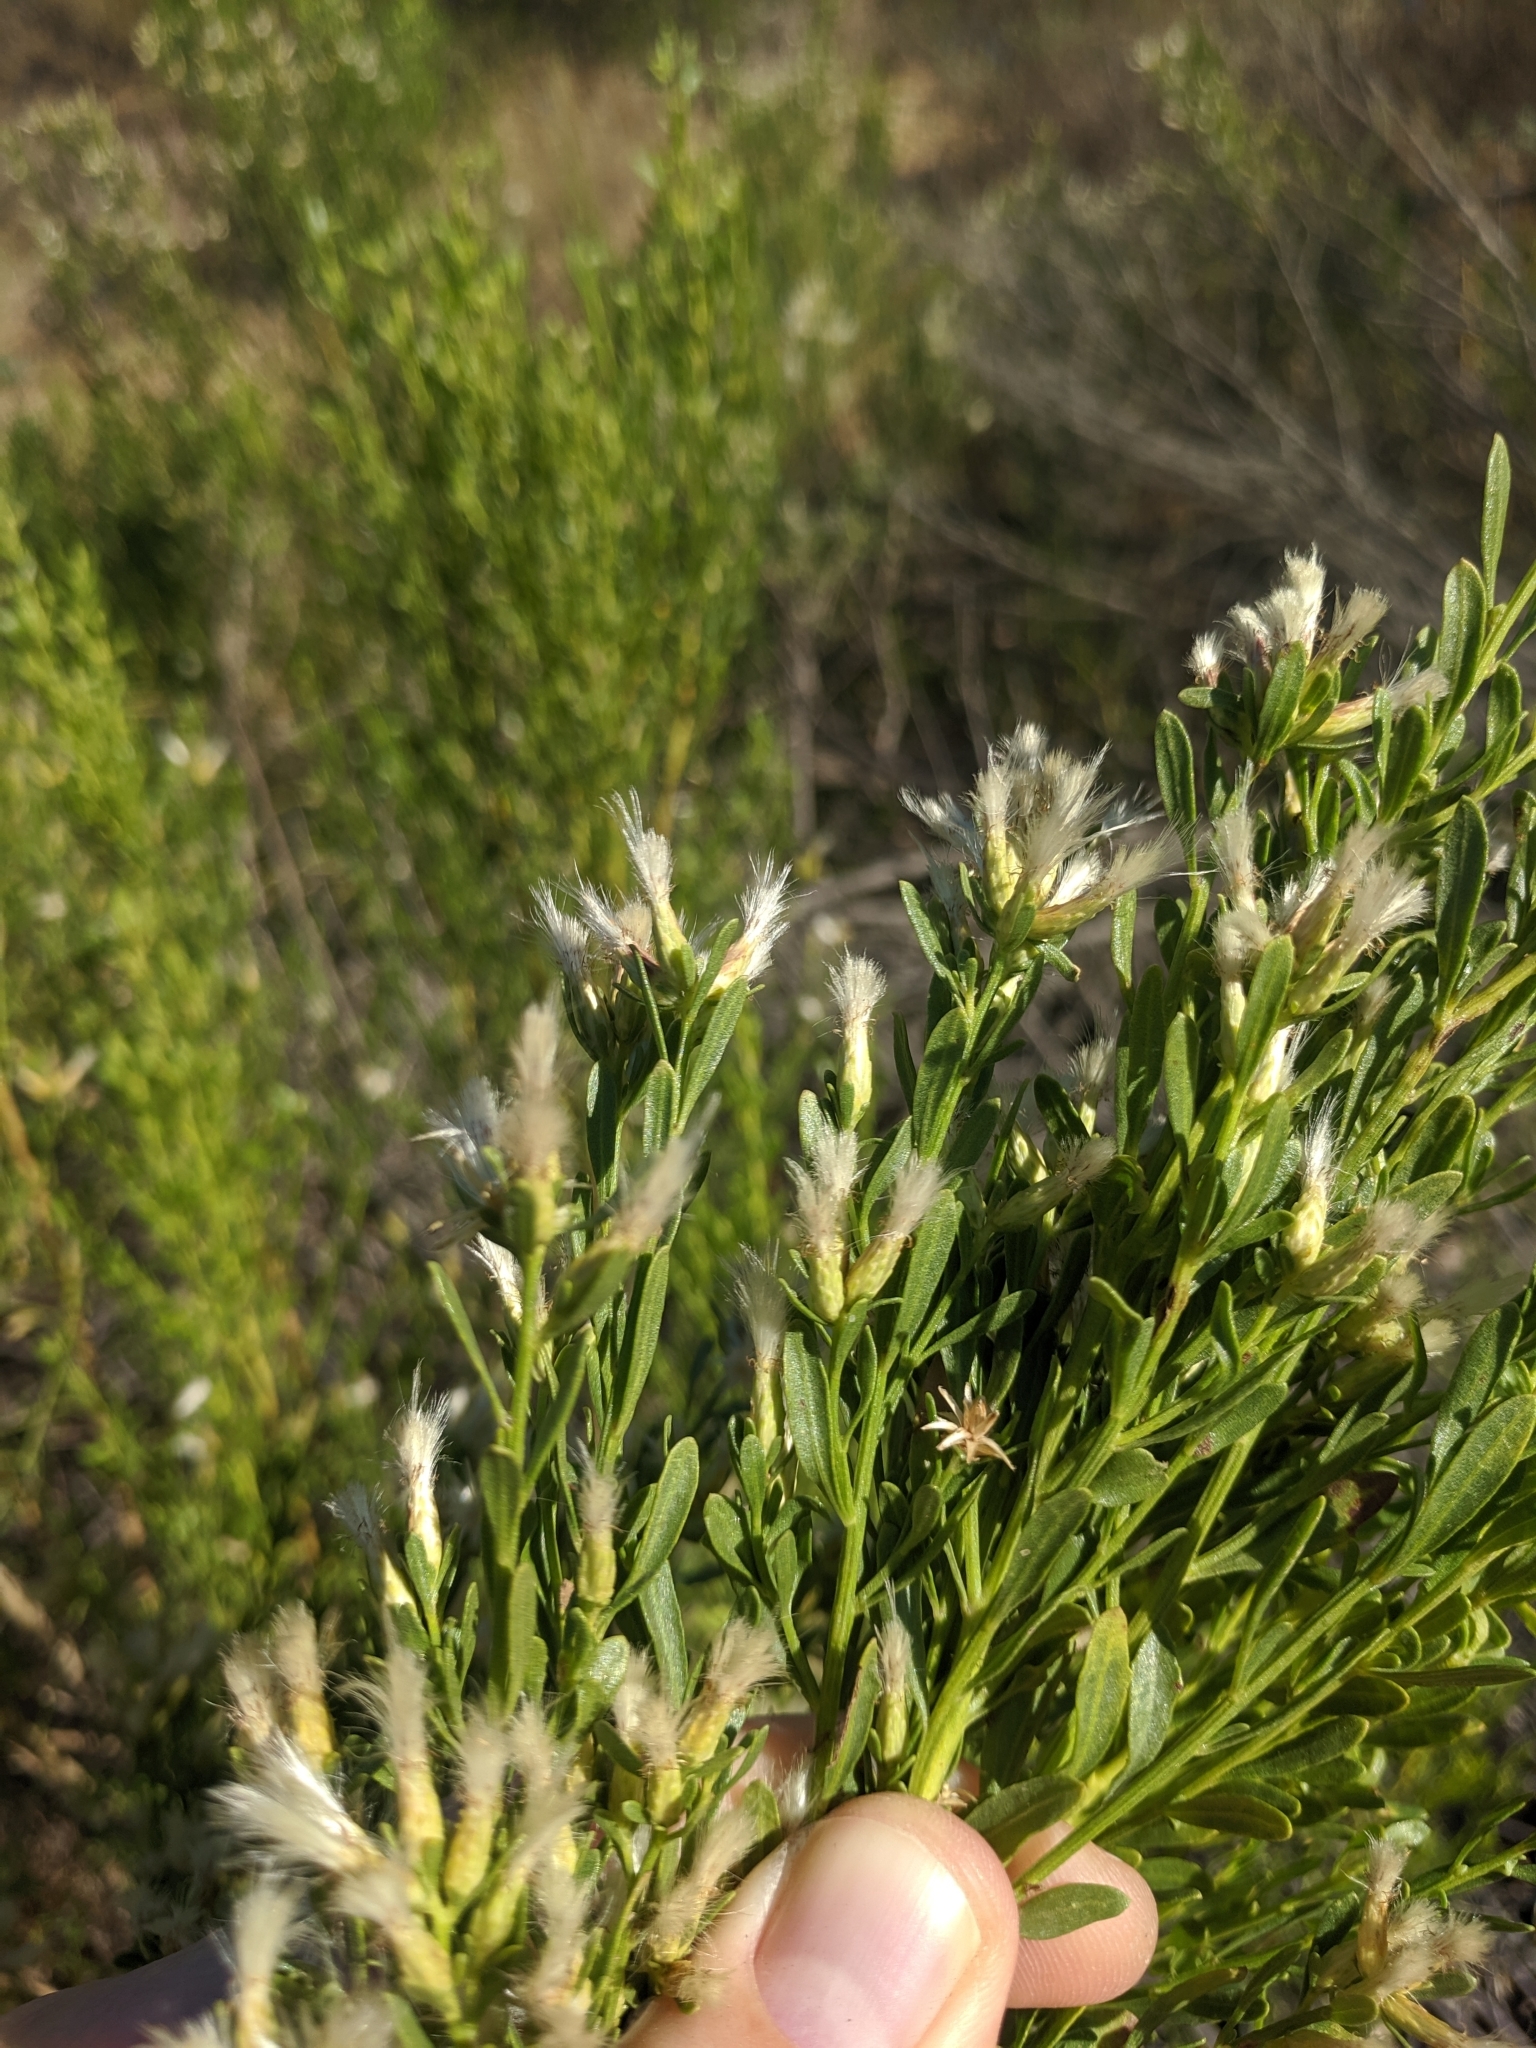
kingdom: Plantae
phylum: Tracheophyta
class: Magnoliopsida
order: Asterales
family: Asteraceae
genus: Baccharis
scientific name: Baccharis pilularis
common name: Coyotebrush
